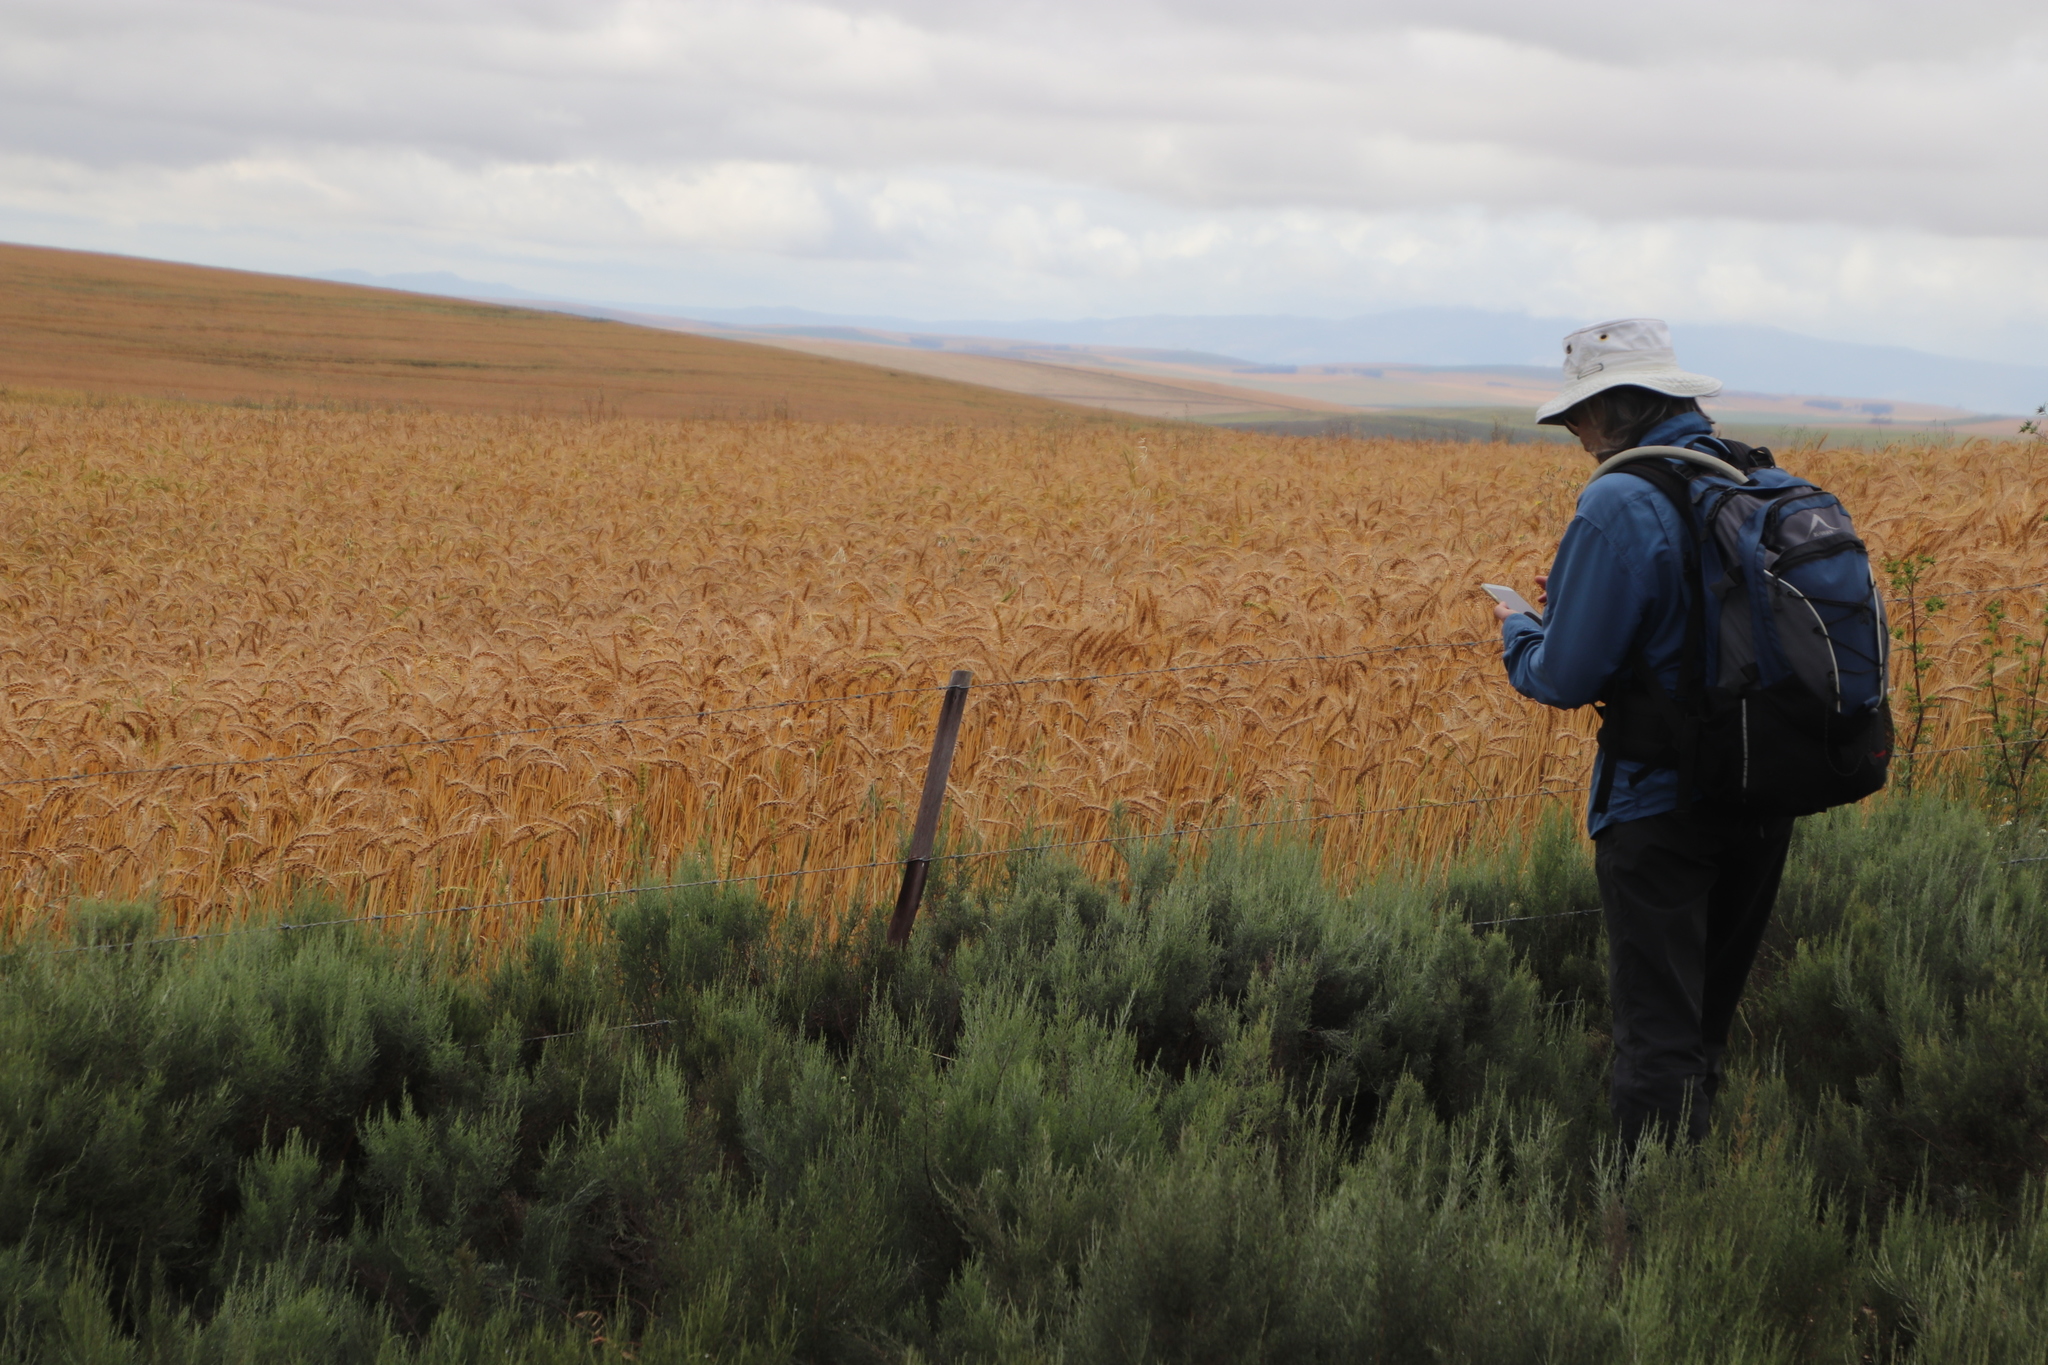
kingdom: Plantae
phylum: Tracheophyta
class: Liliopsida
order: Poales
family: Poaceae
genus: Triticum
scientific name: Triticum aestivum
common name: Common wheat
